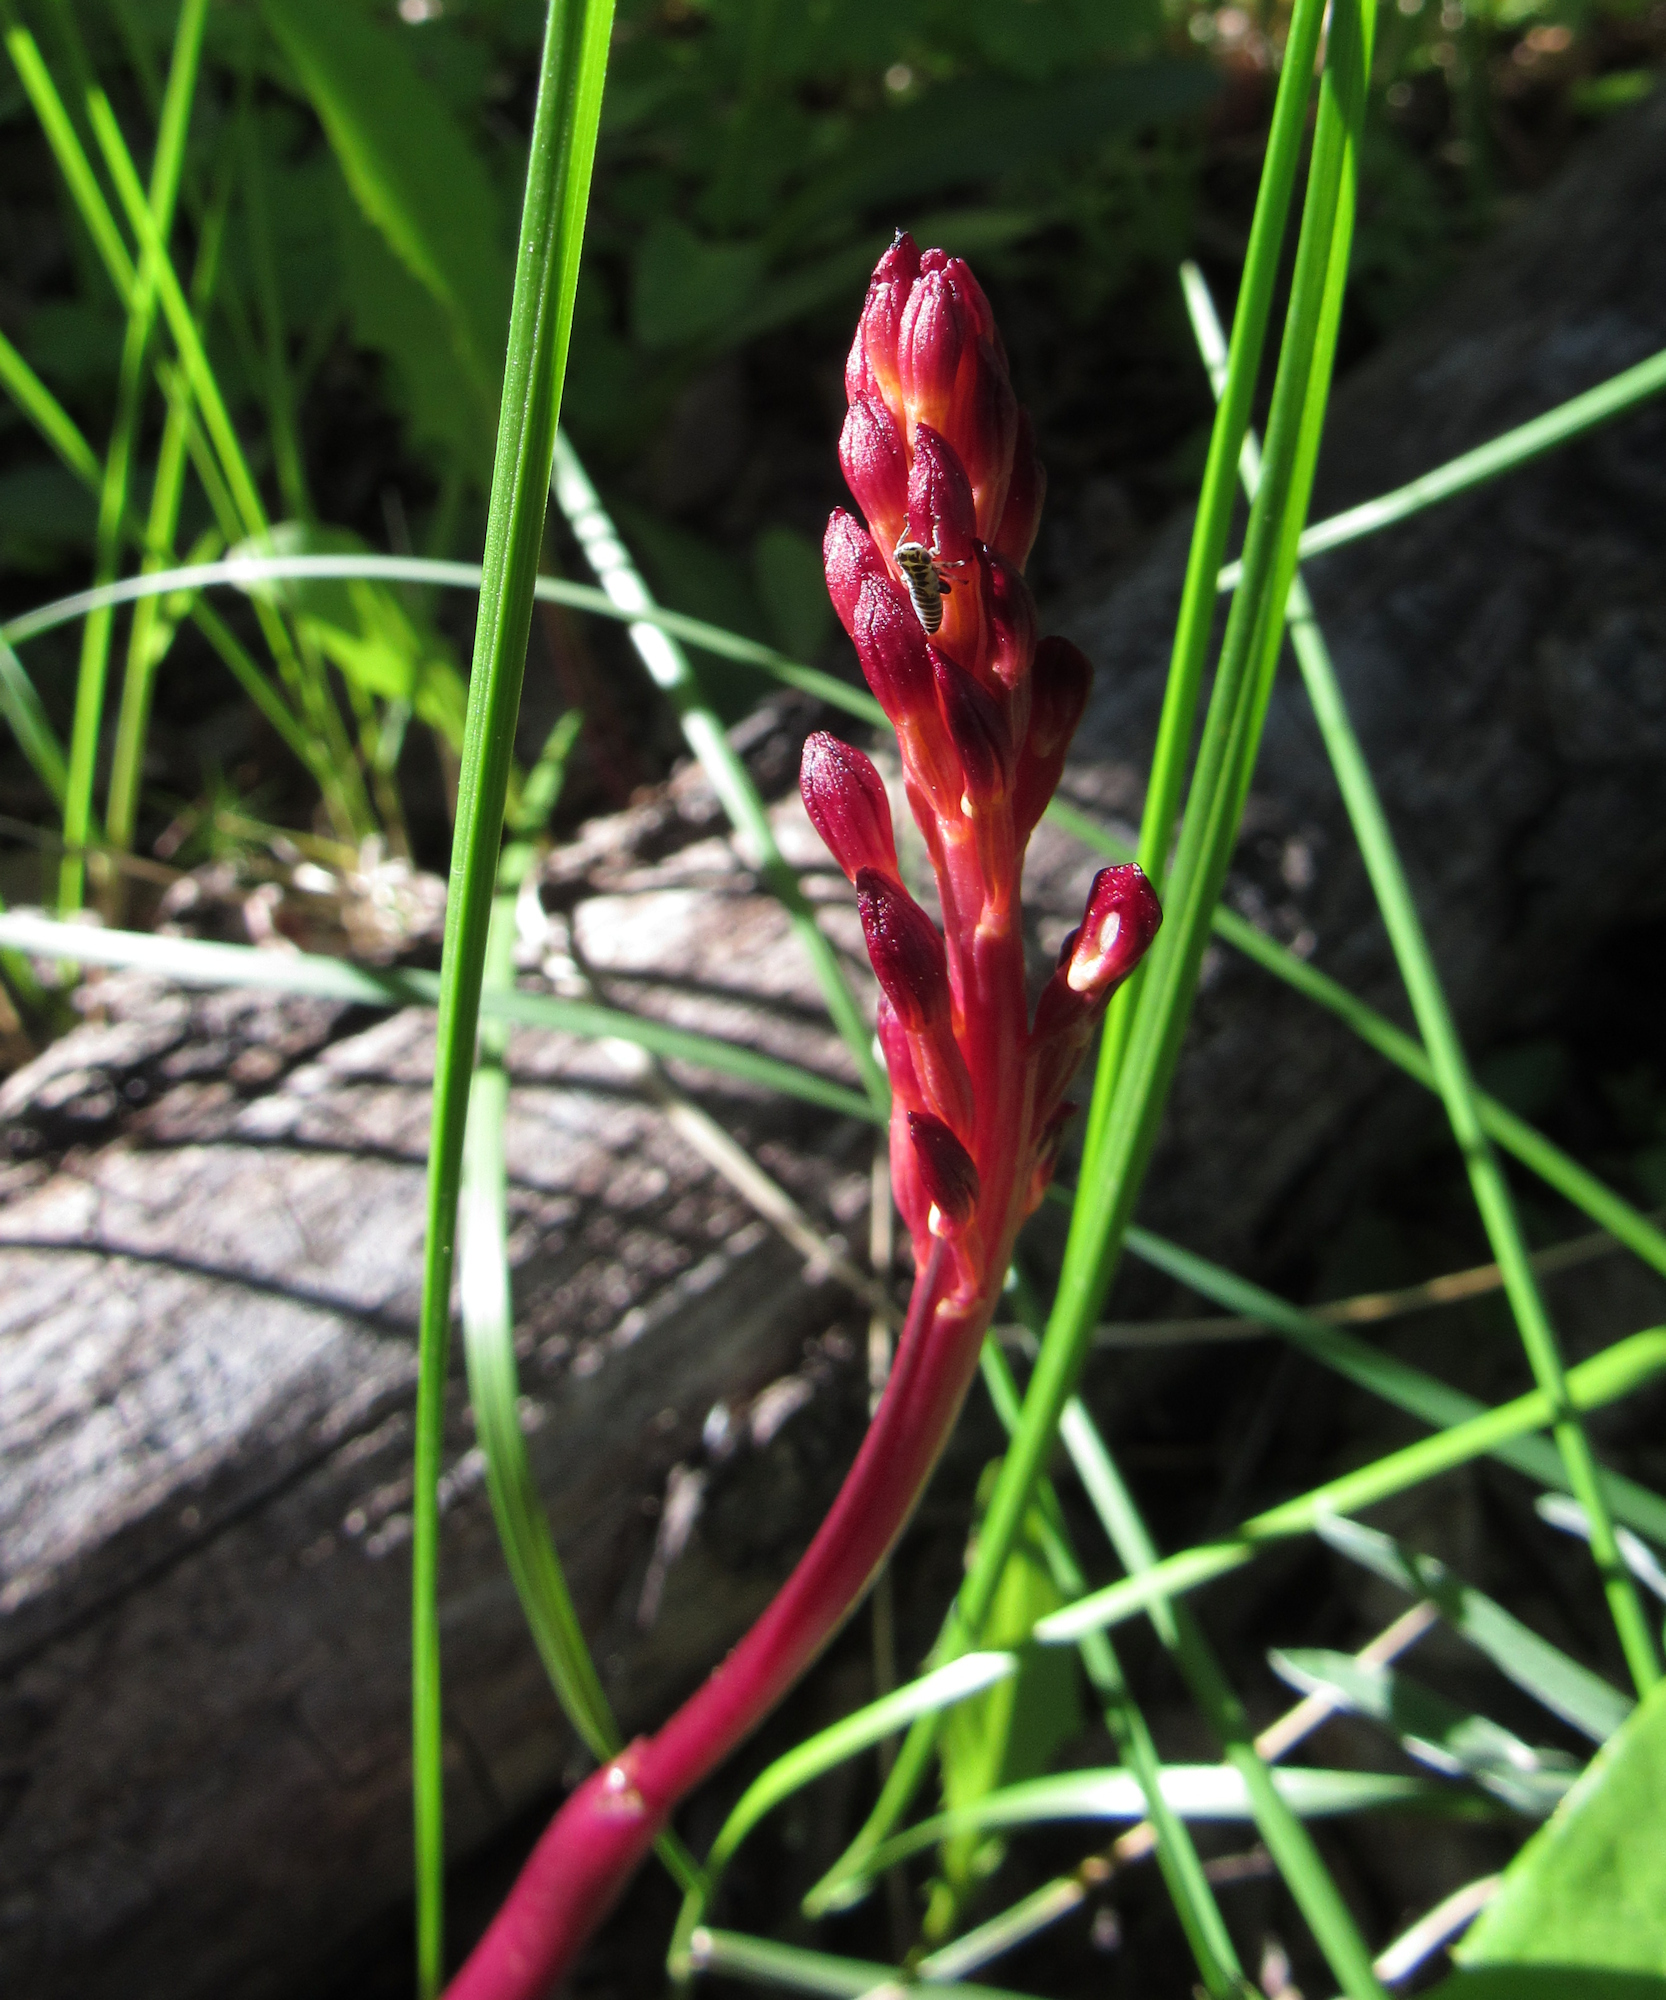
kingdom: Plantae
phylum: Tracheophyta
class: Liliopsida
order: Asparagales
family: Orchidaceae
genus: Corallorhiza
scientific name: Corallorhiza maculata
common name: Spotted coralroot
